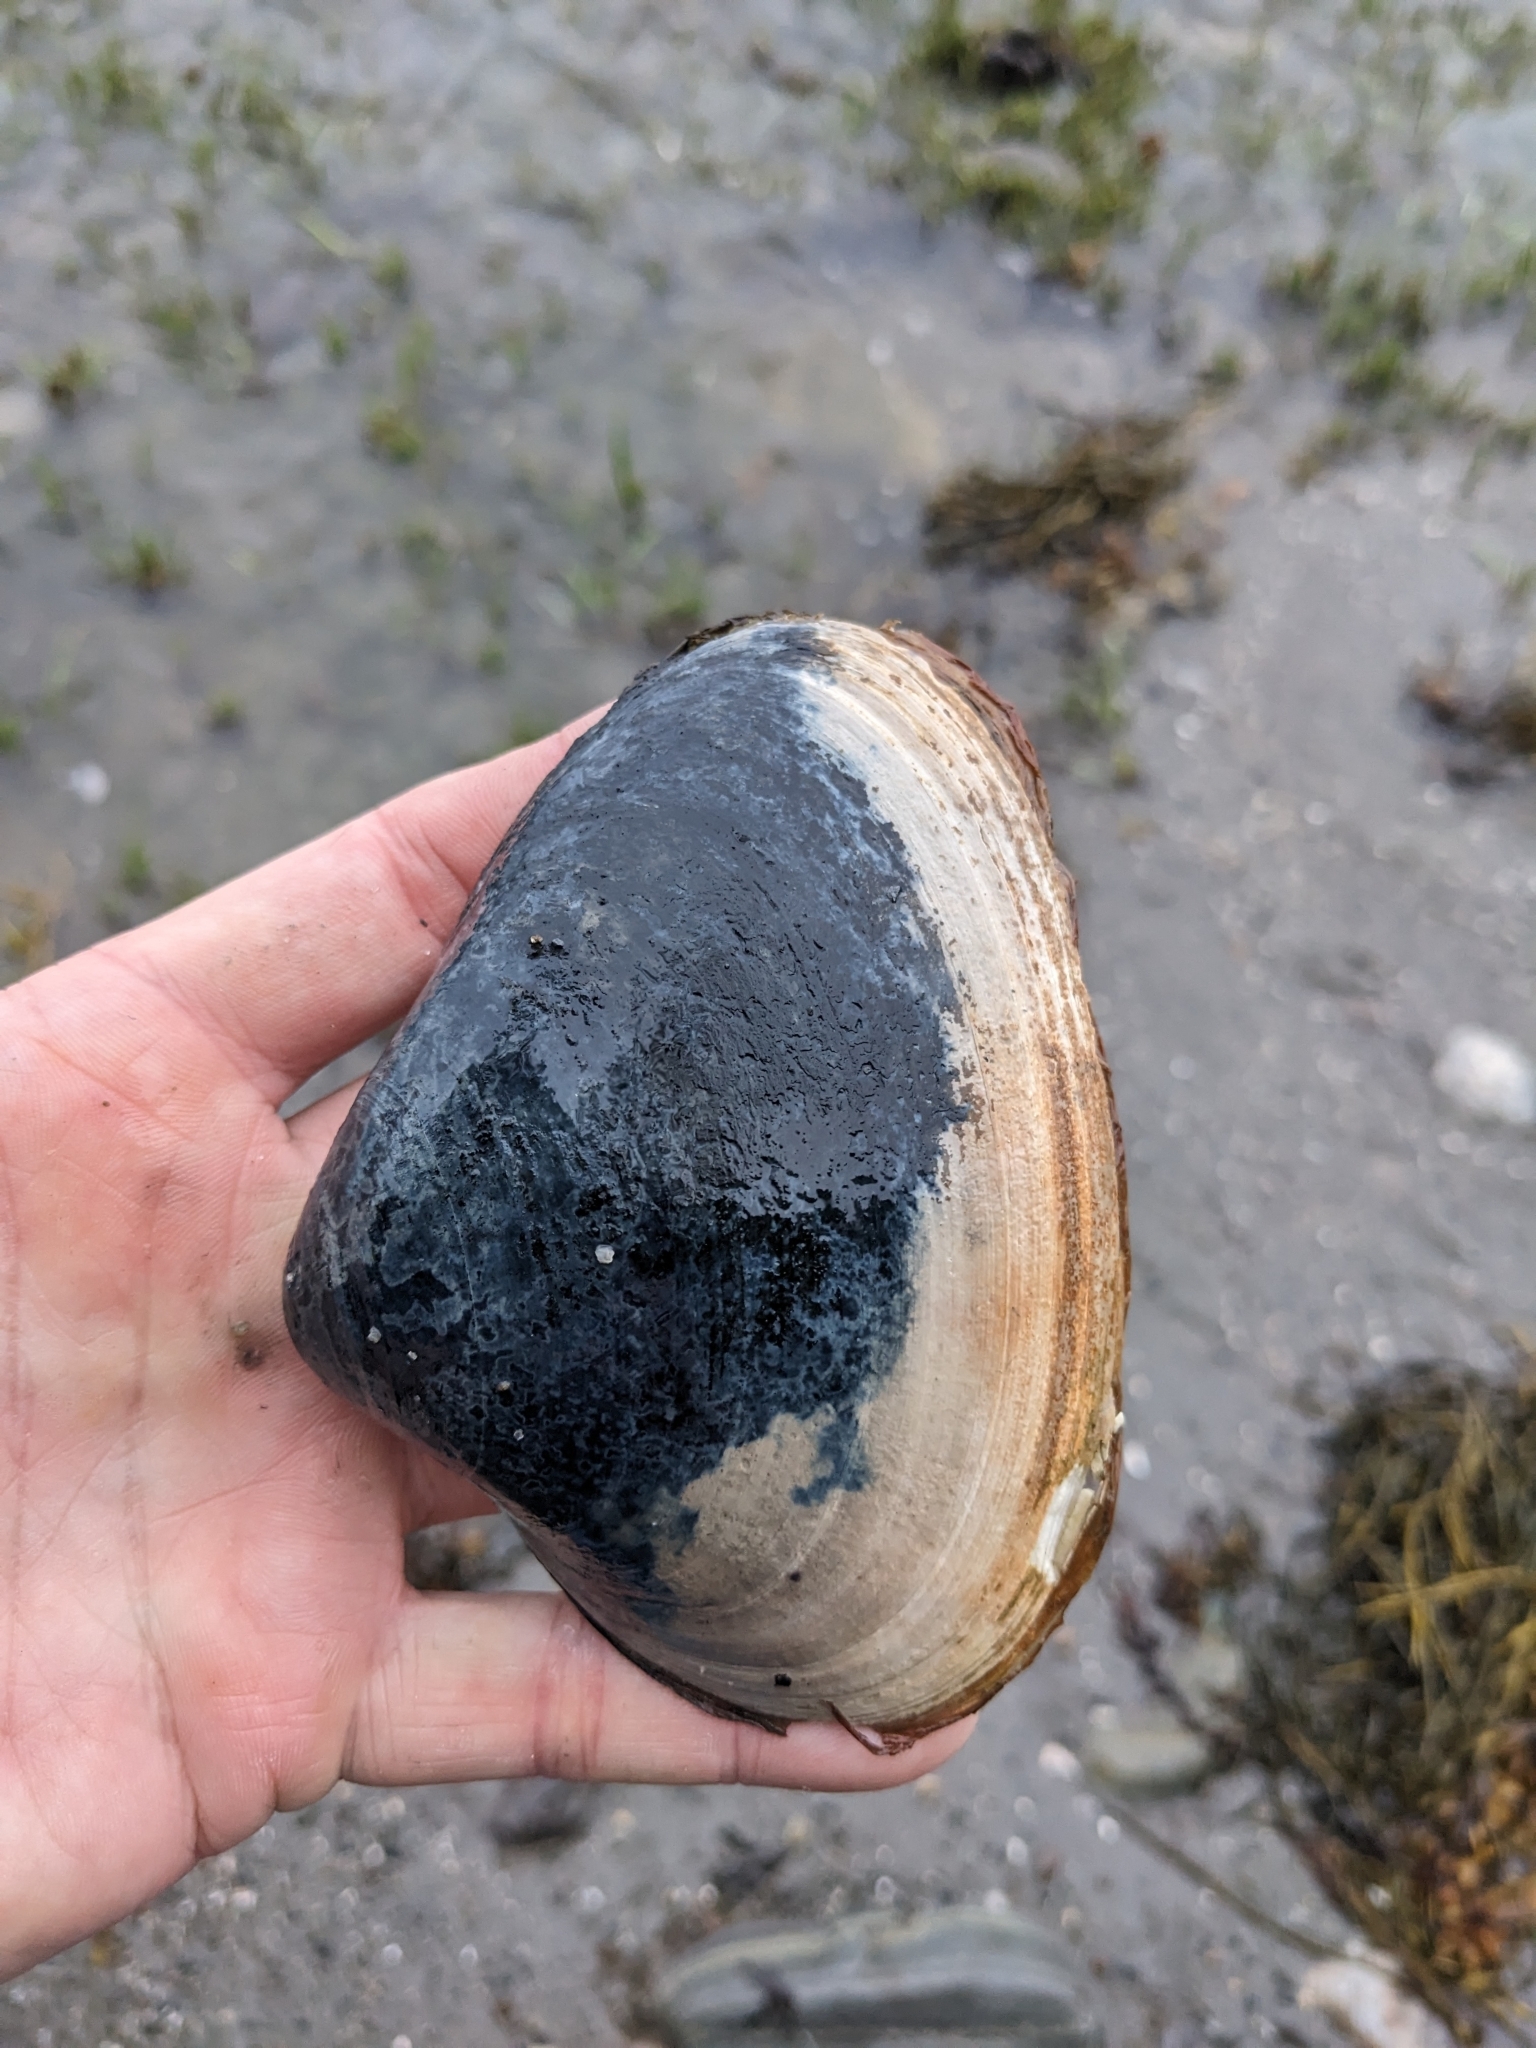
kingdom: Animalia
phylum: Mollusca
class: Bivalvia
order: Venerida
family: Mactridae
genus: Spisula
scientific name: Spisula solidissima
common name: Atlantic surf clam
